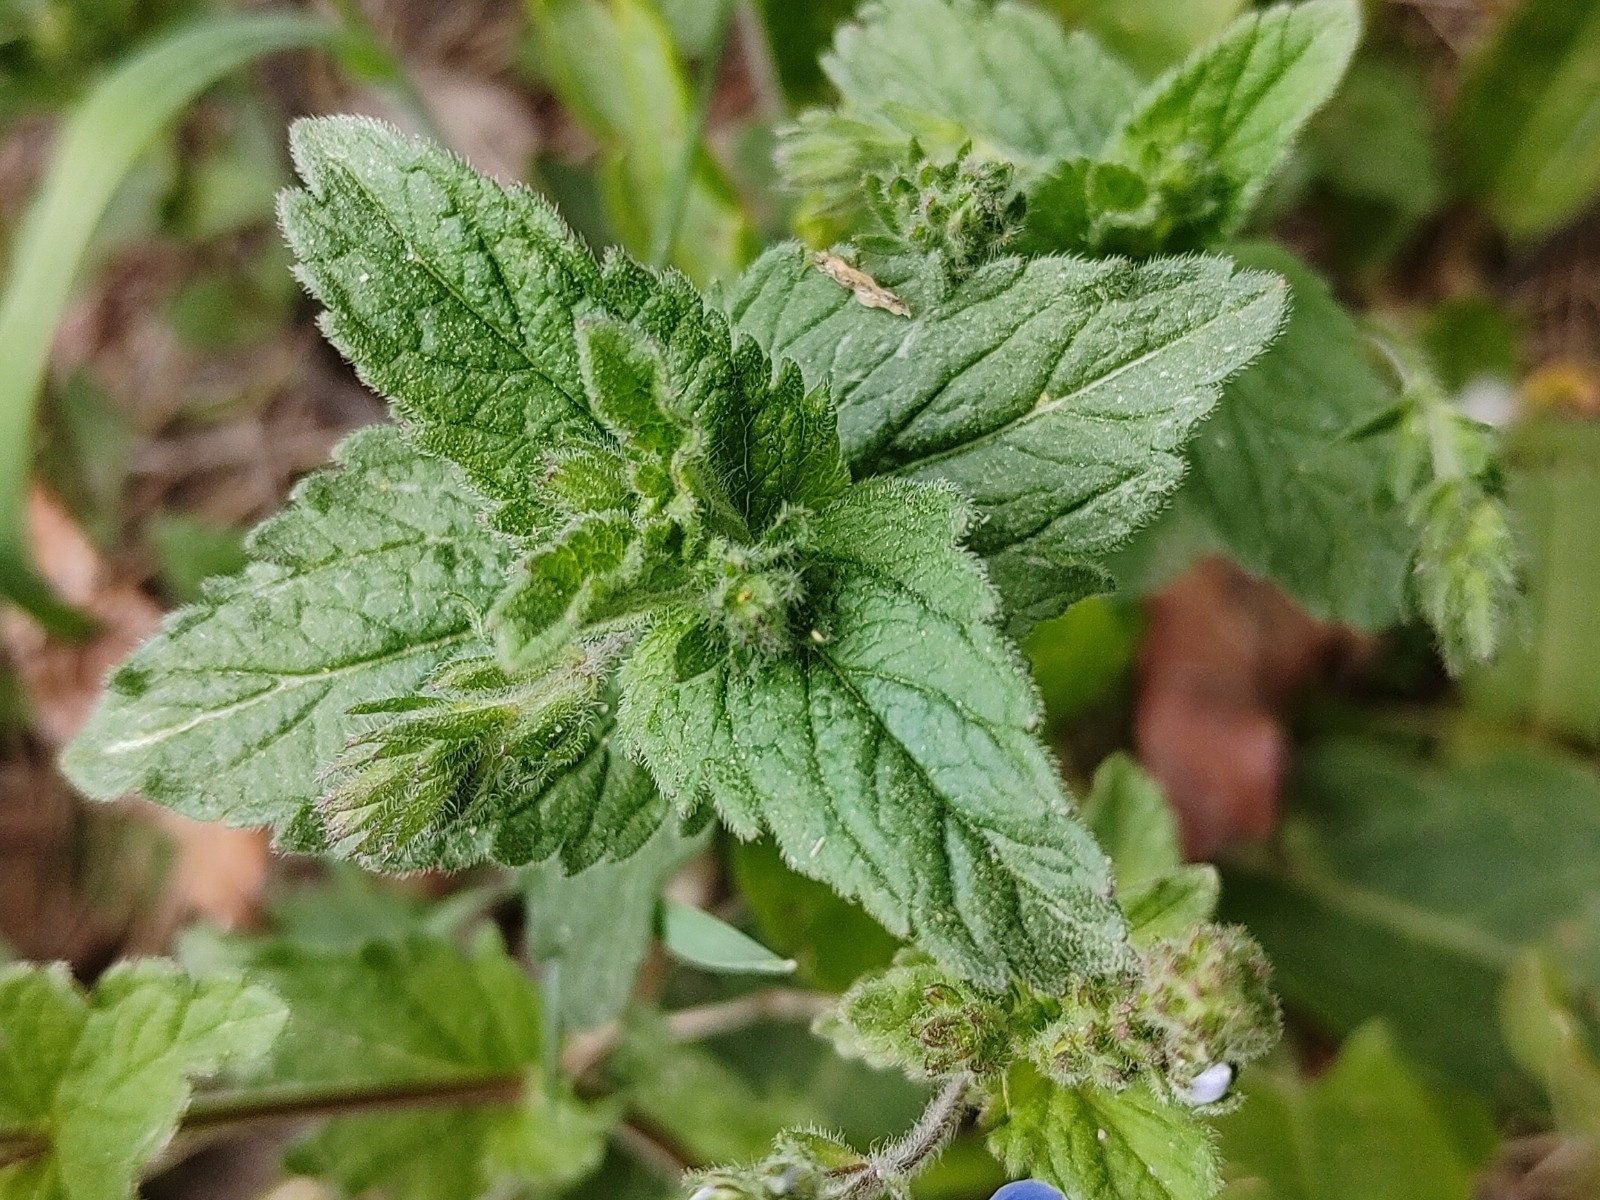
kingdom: Plantae
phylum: Tracheophyta
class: Magnoliopsida
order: Lamiales
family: Plantaginaceae
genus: Veronica
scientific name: Veronica chamaedrys
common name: Germander speedwell
